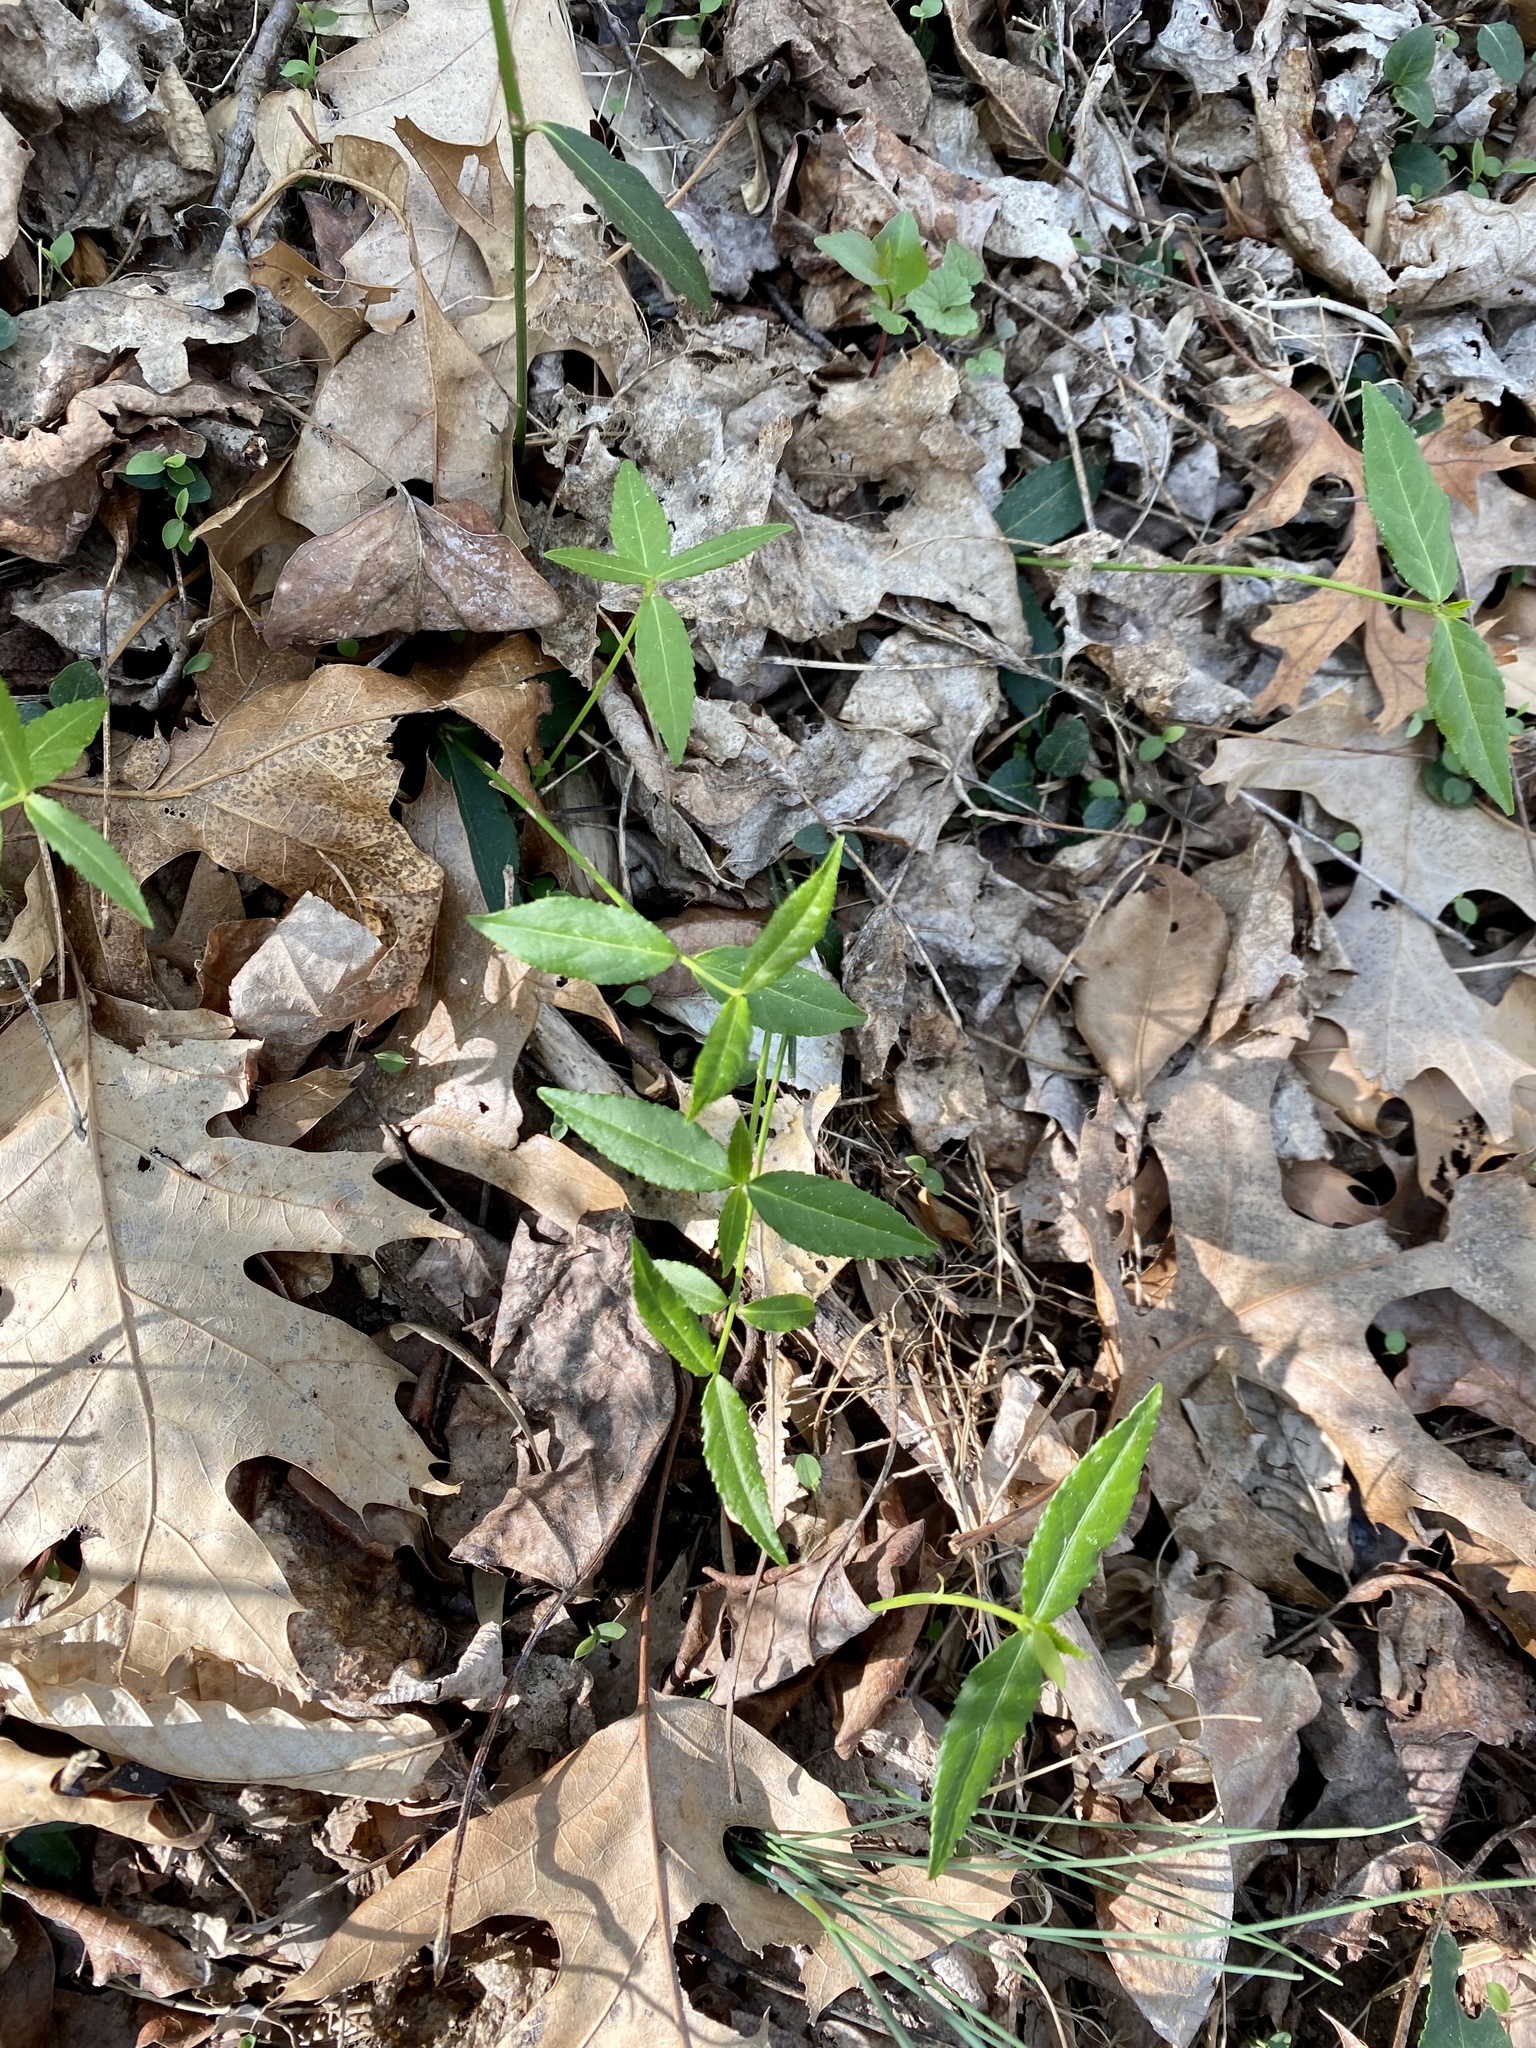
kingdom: Plantae
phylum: Tracheophyta
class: Magnoliopsida
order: Celastrales
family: Celastraceae
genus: Euonymus
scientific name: Euonymus americanus
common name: Bursting-heart
